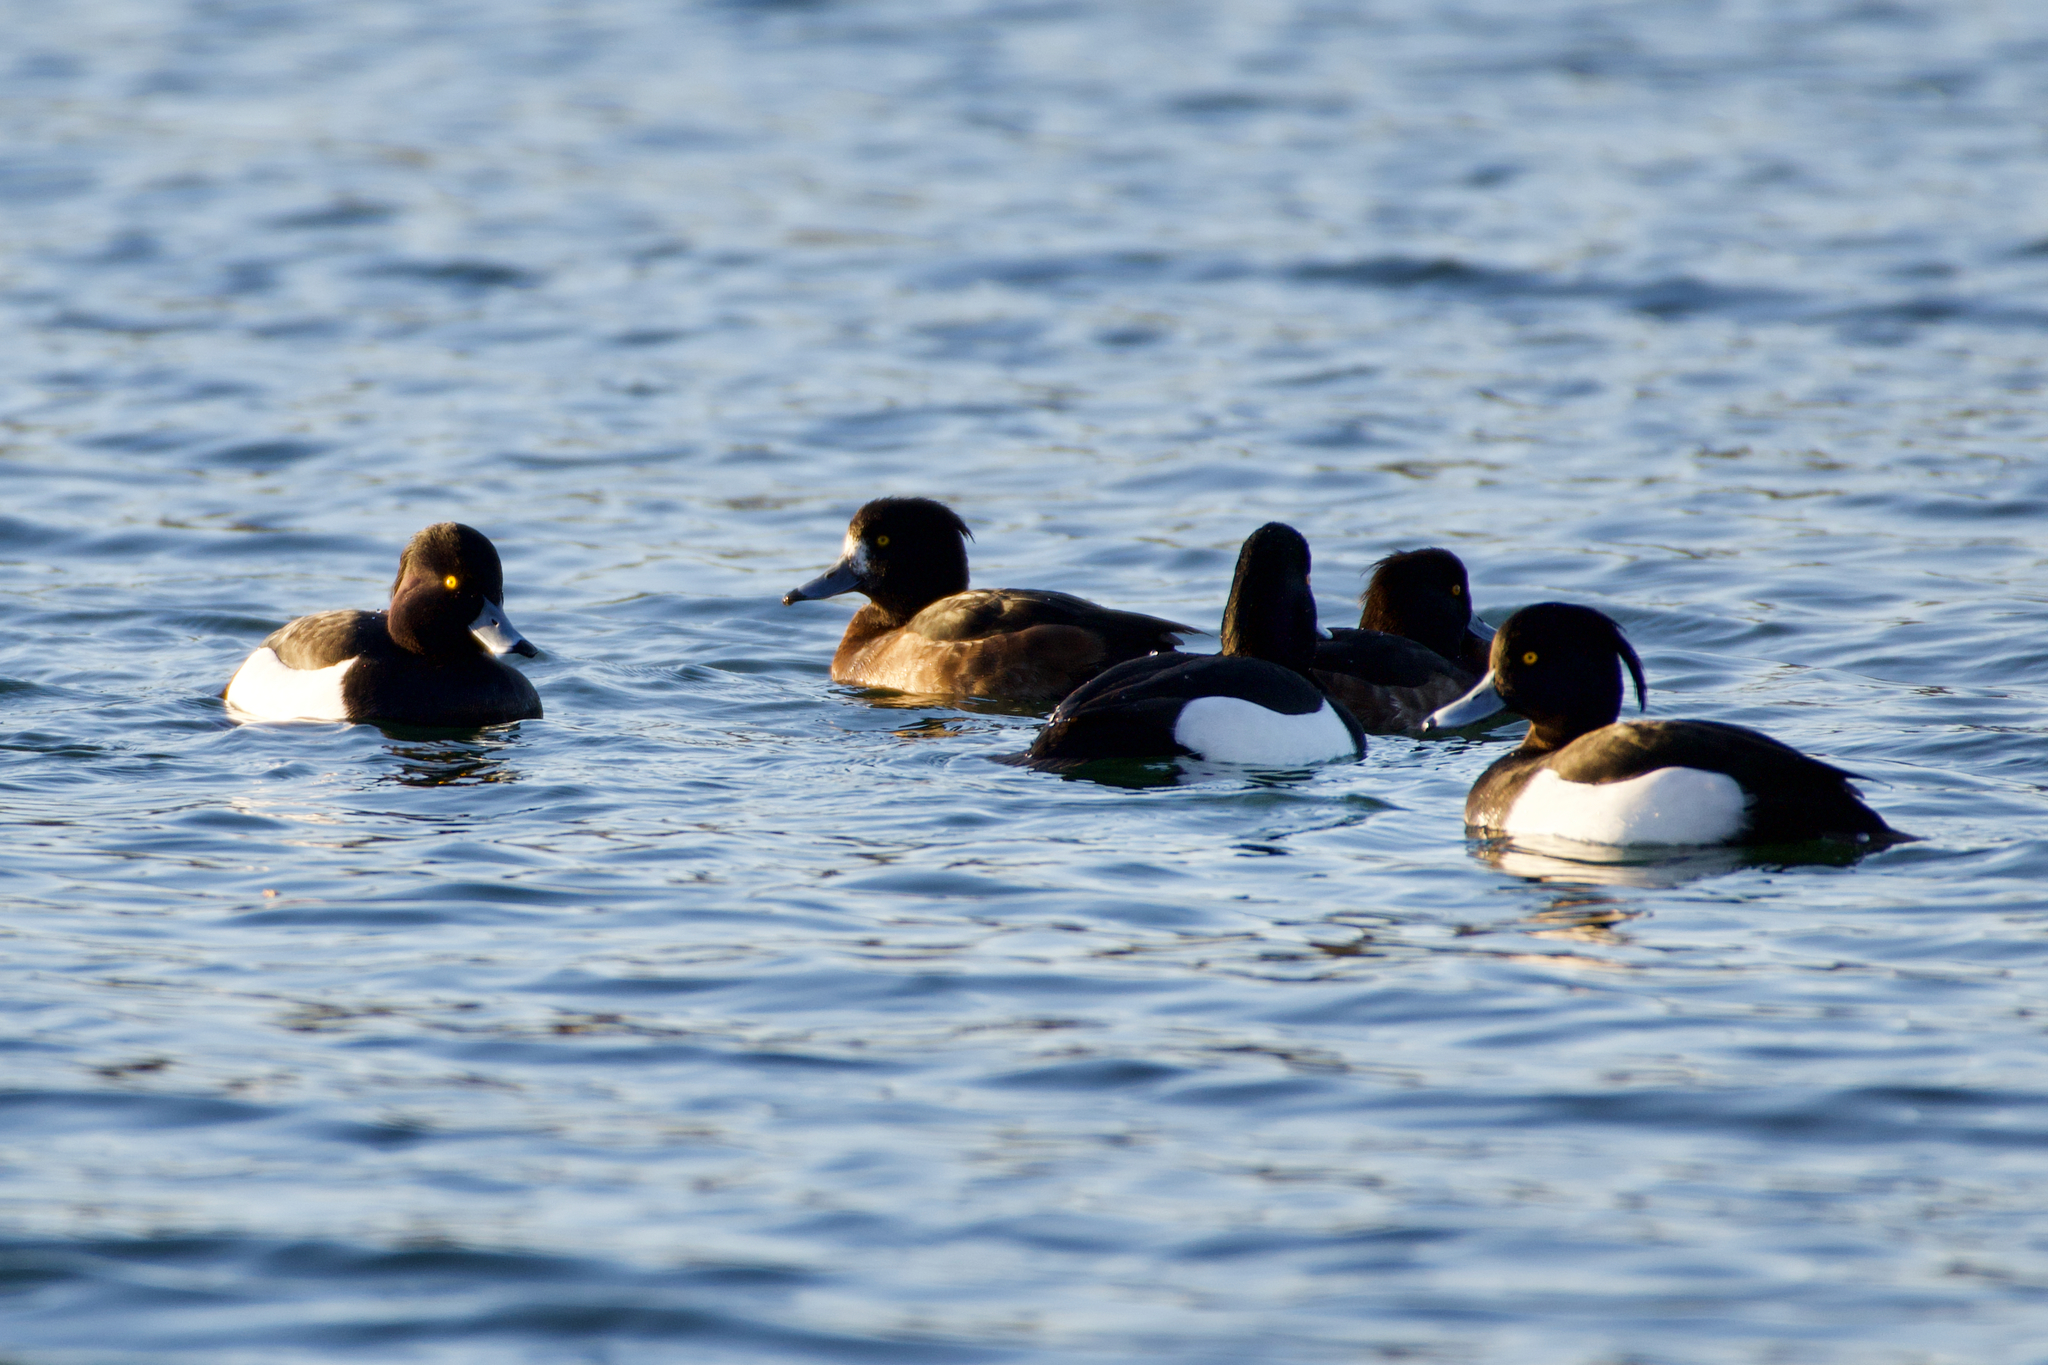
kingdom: Animalia
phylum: Chordata
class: Aves
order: Anseriformes
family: Anatidae
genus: Aythya
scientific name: Aythya fuligula
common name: Tufted duck
